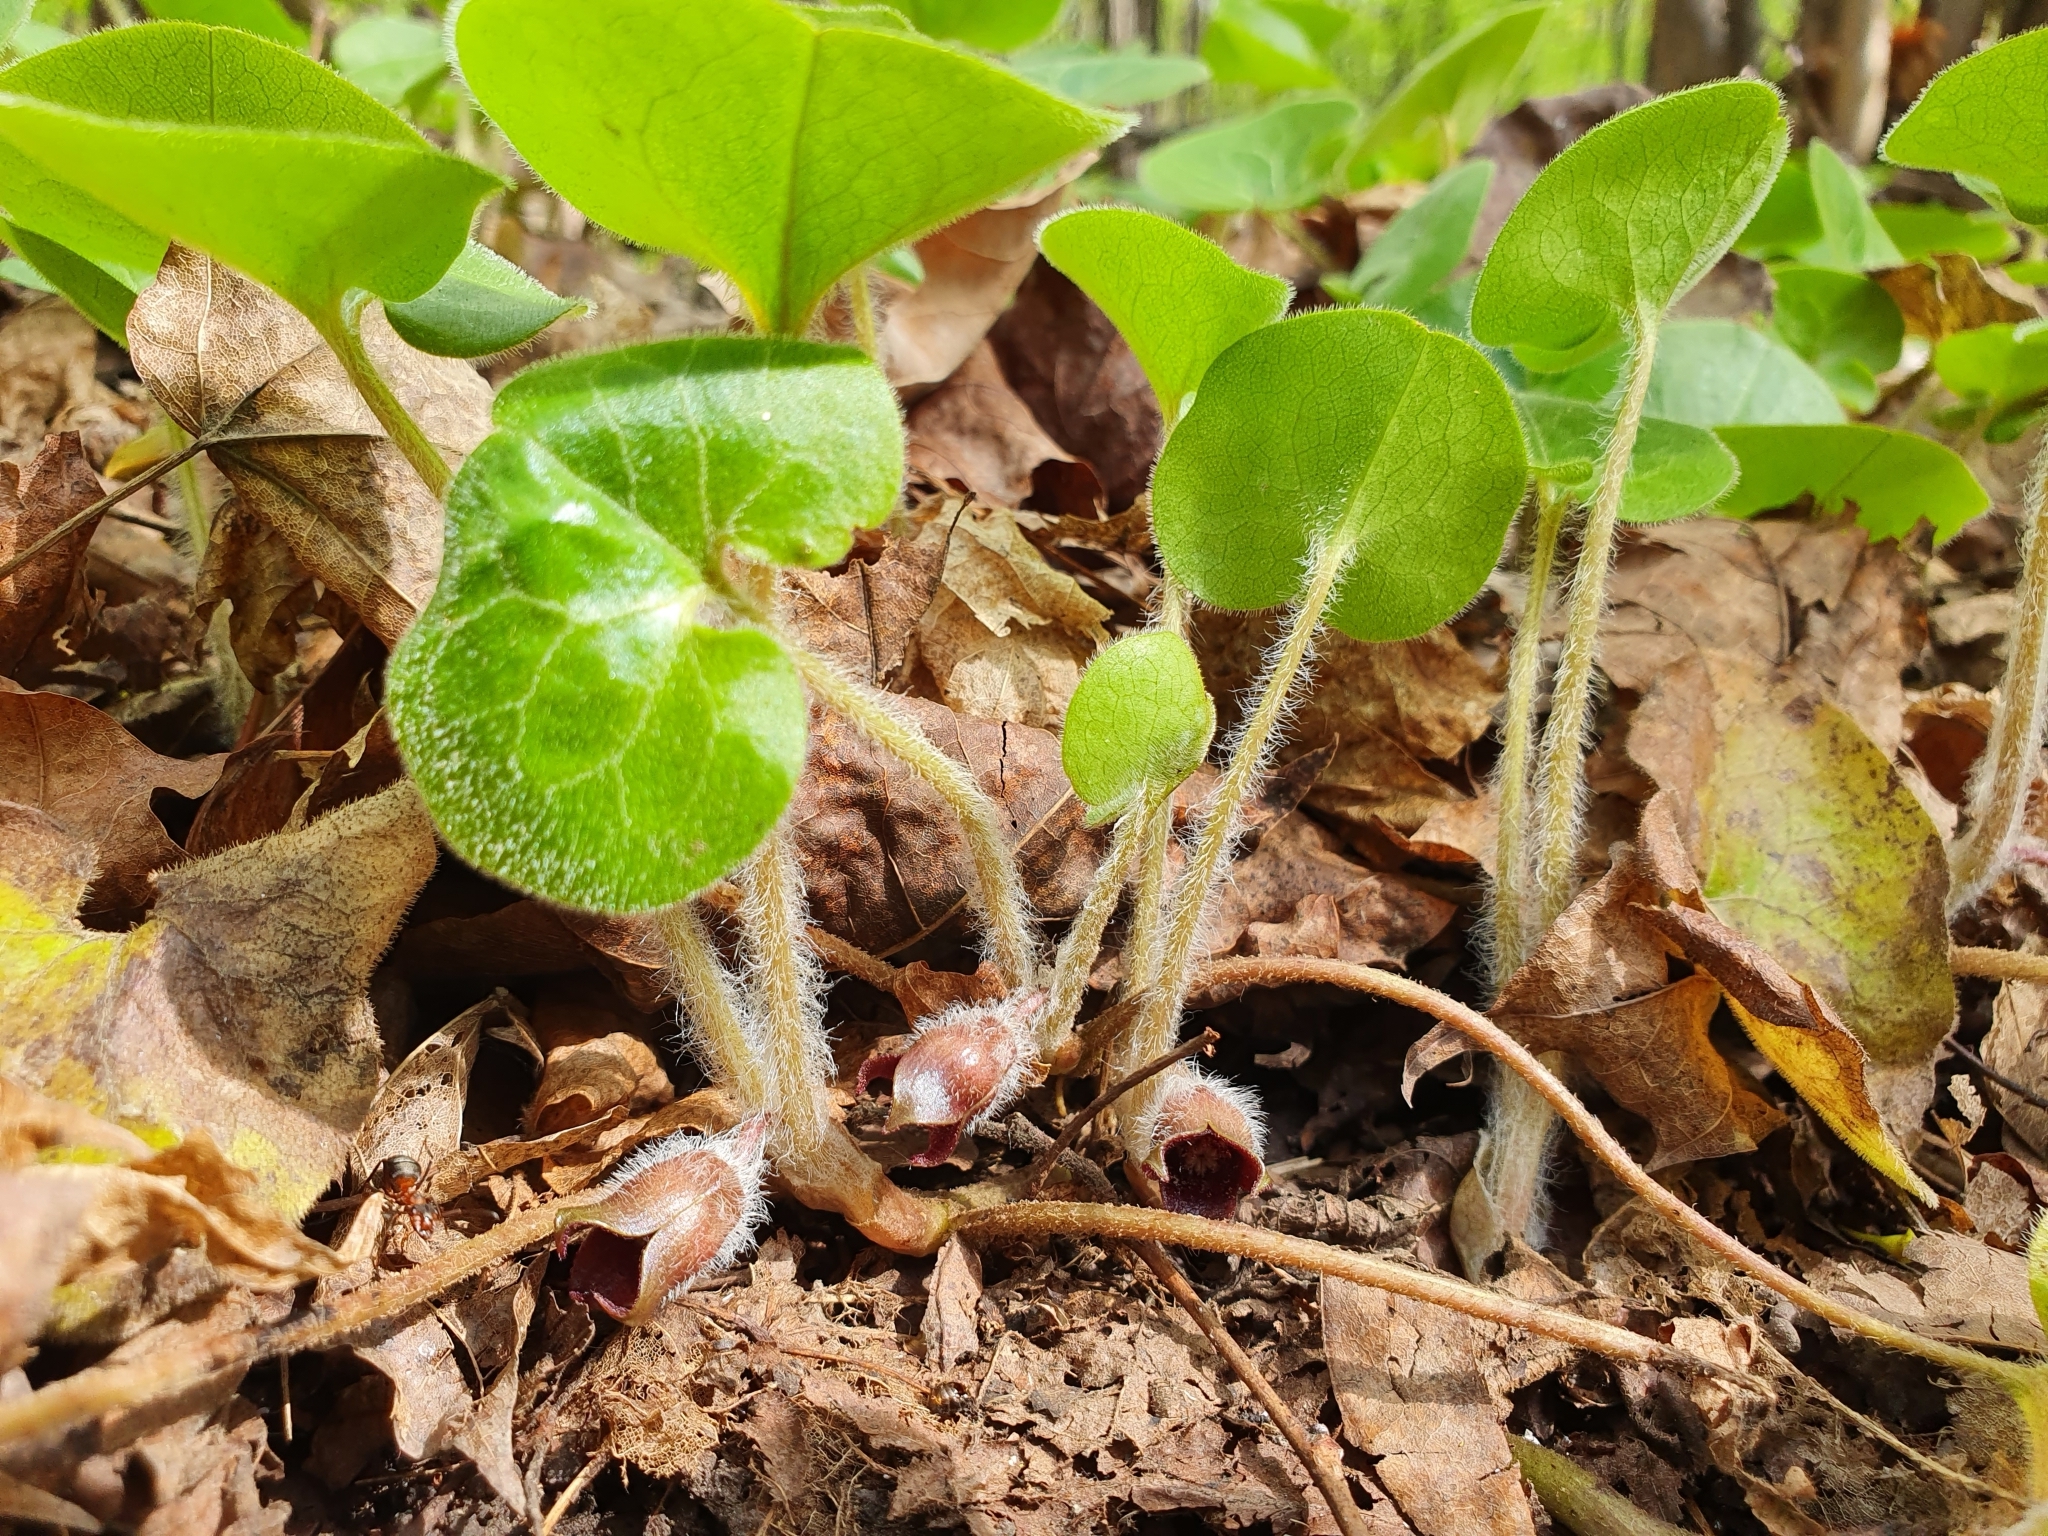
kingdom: Plantae
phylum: Tracheophyta
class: Magnoliopsida
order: Piperales
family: Aristolochiaceae
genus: Asarum
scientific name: Asarum europaeum
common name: Asarabacca
